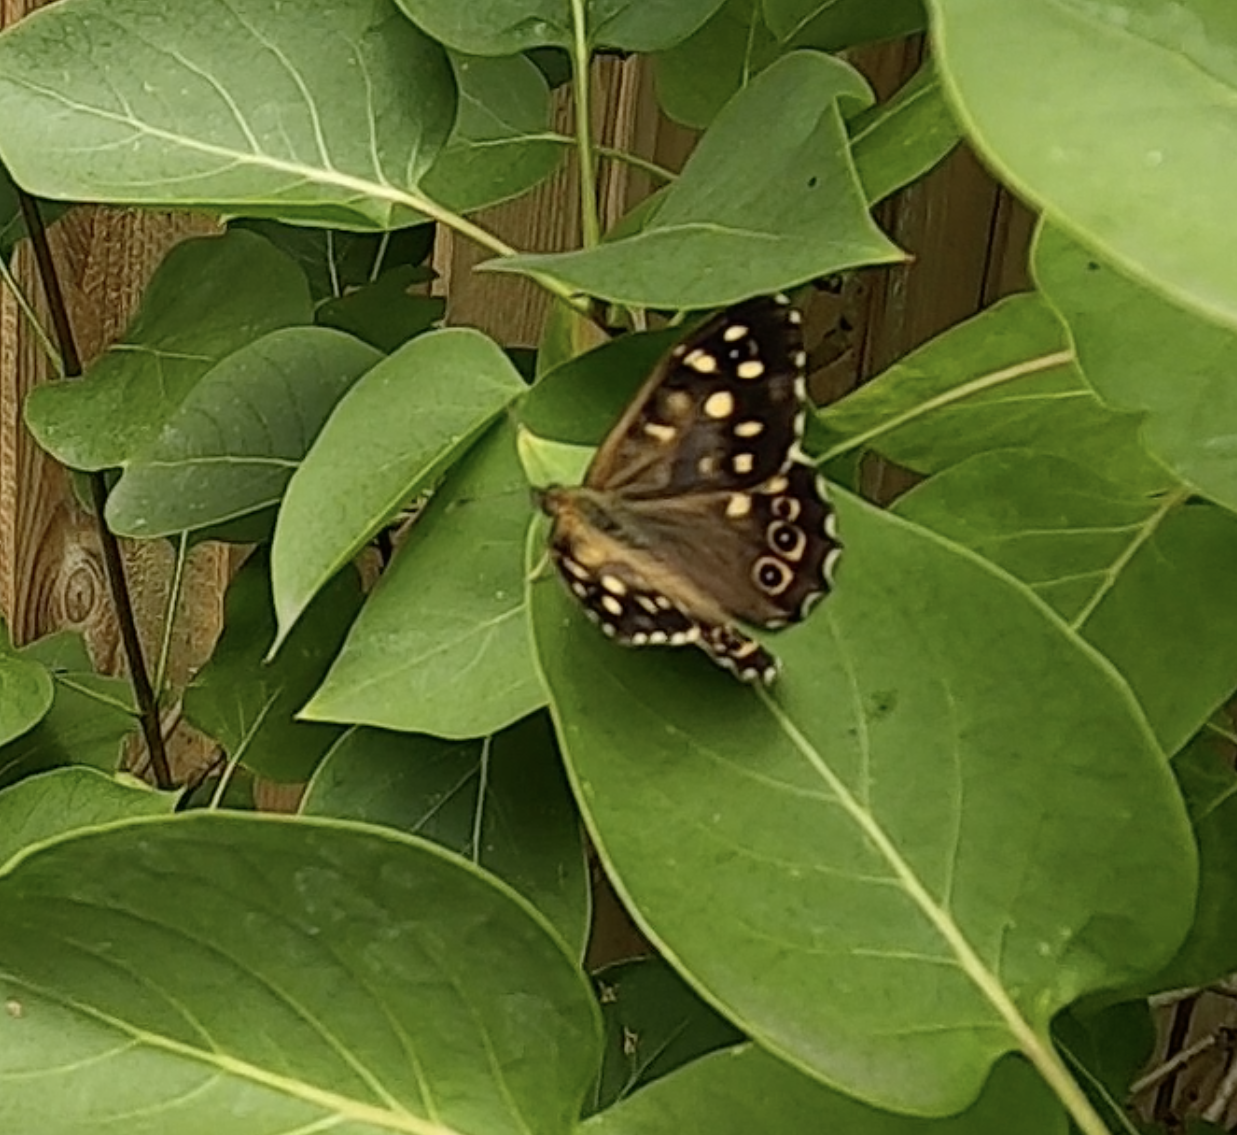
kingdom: Animalia
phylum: Arthropoda
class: Insecta
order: Lepidoptera
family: Nymphalidae
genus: Pararge
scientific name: Pararge aegeria
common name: Speckled wood
